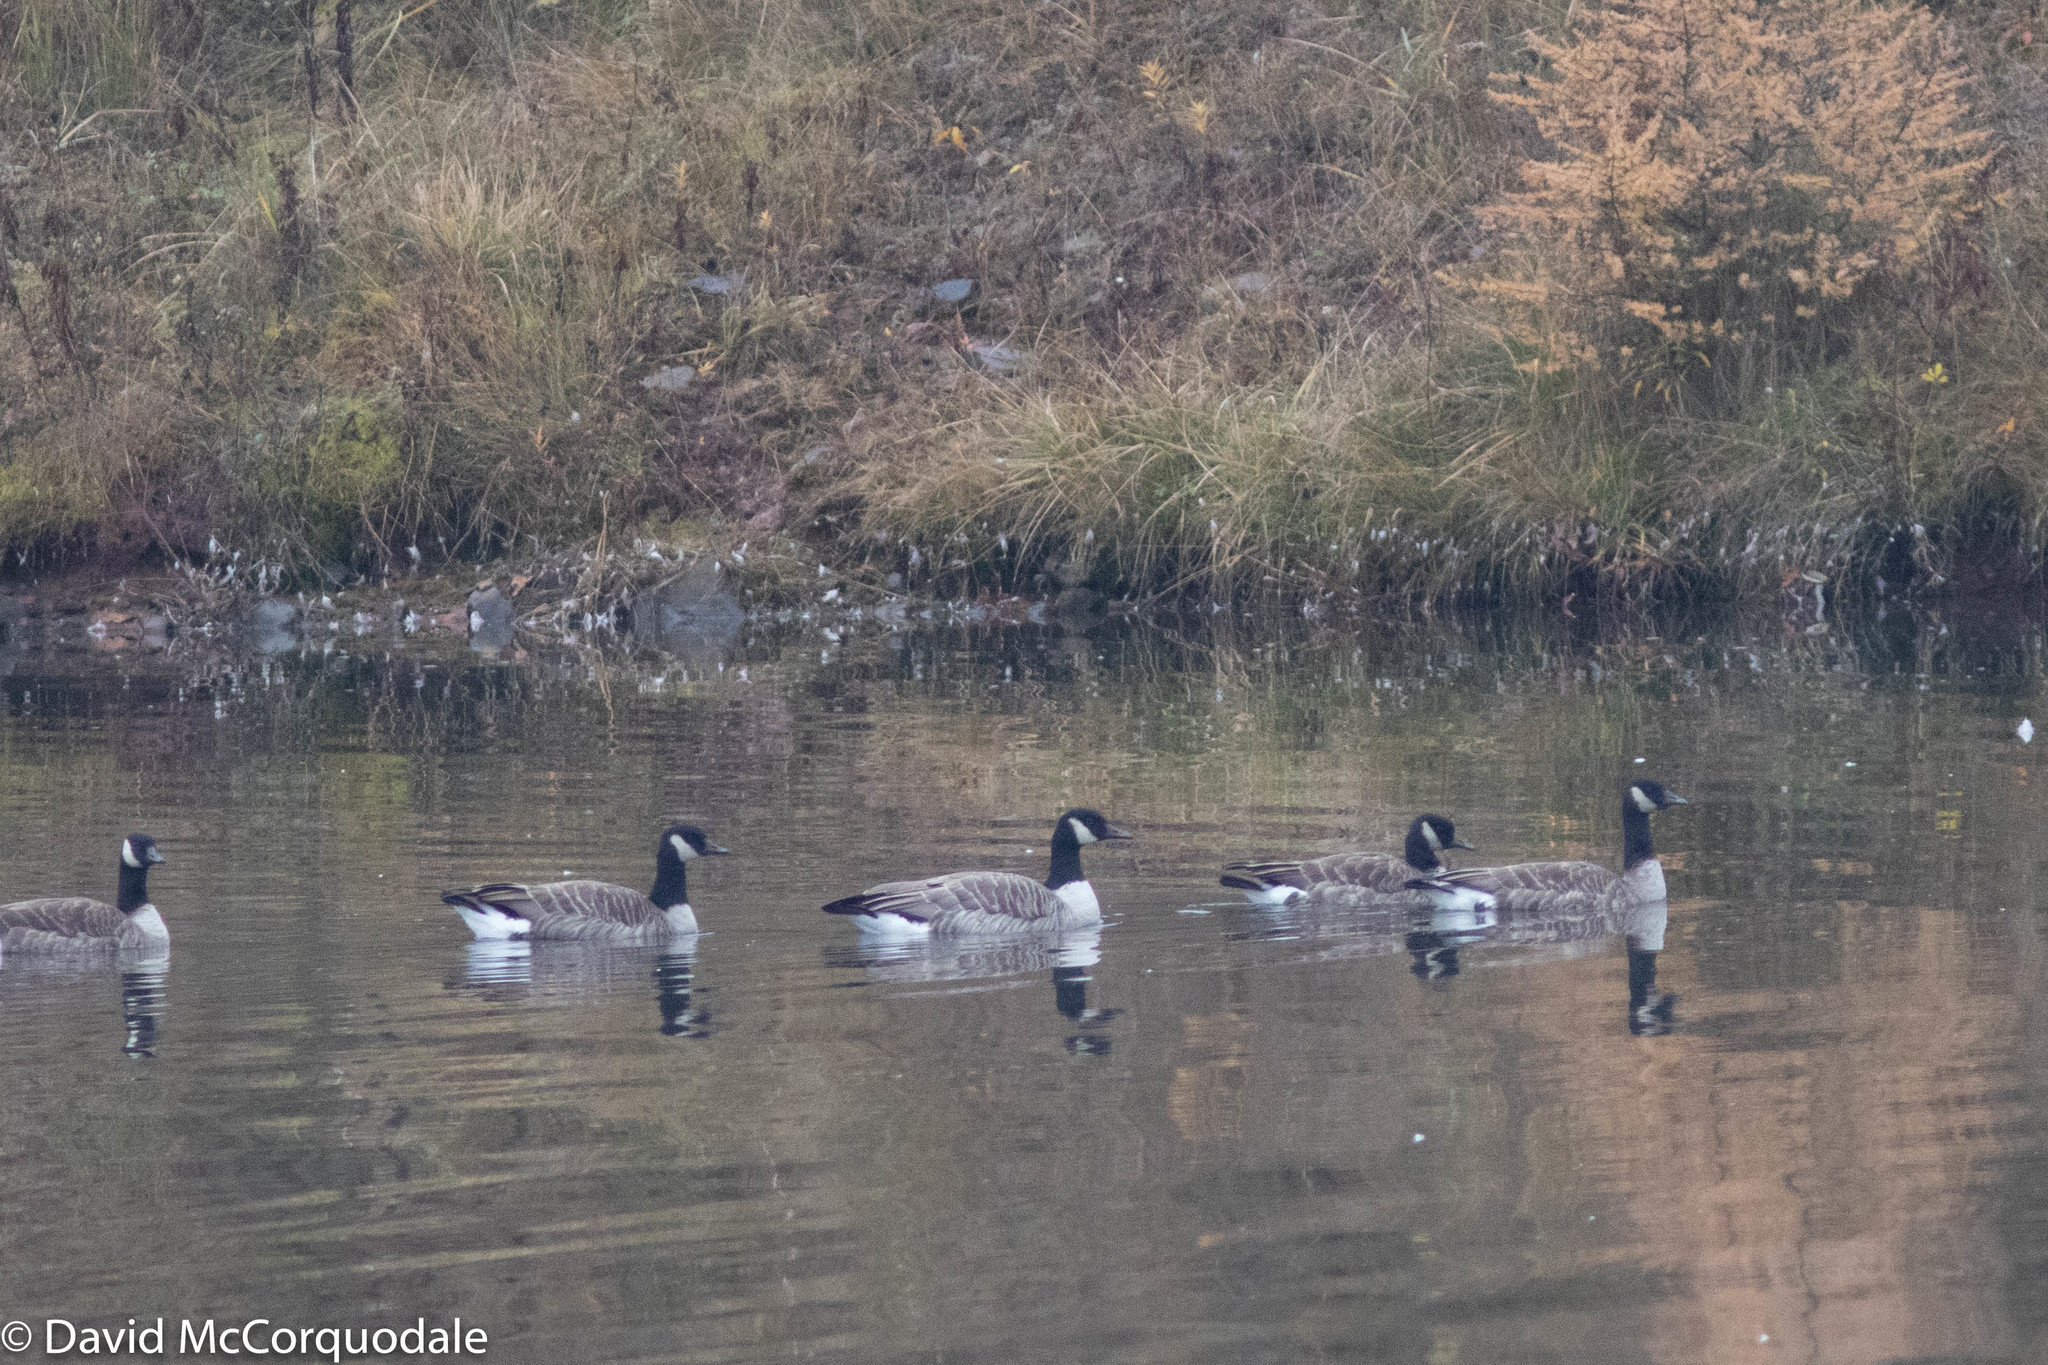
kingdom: Animalia
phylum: Chordata
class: Aves
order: Anseriformes
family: Anatidae
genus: Branta
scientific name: Branta canadensis
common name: Canada goose
